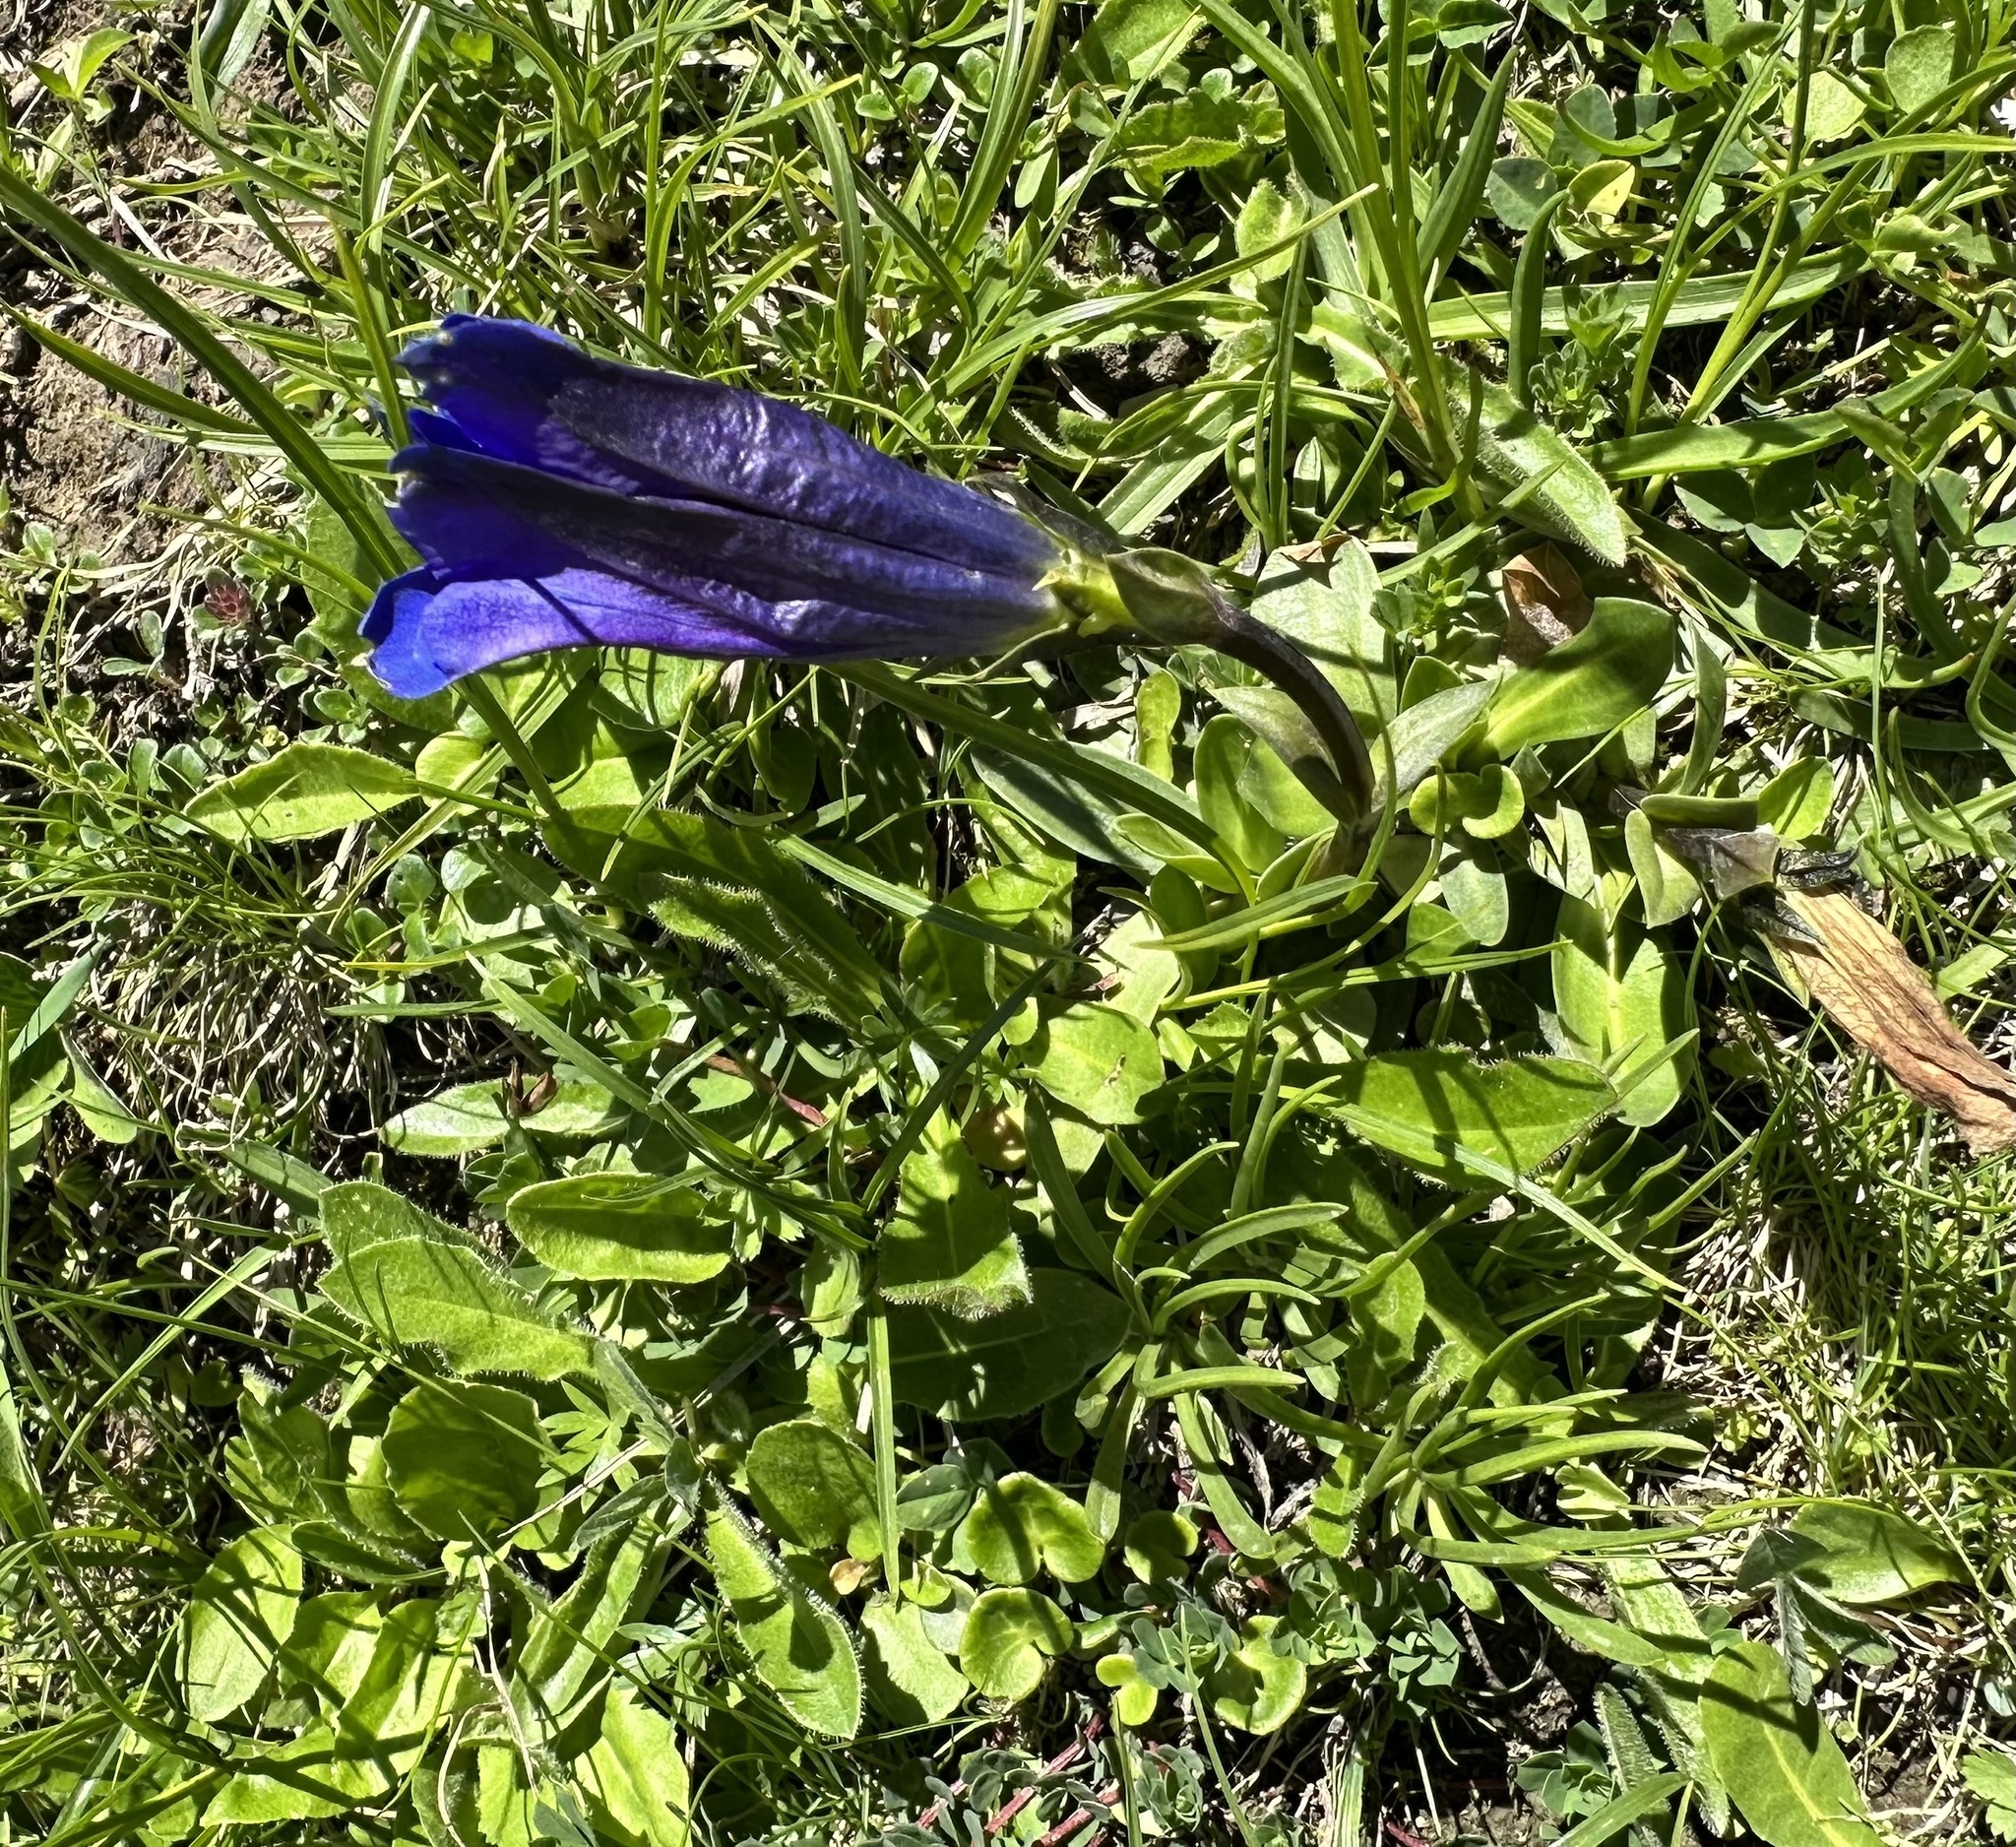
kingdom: Plantae
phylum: Tracheophyta
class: Magnoliopsida
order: Gentianales
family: Gentianaceae
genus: Gentiana
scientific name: Gentiana clusii
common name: Trumpet gentian
